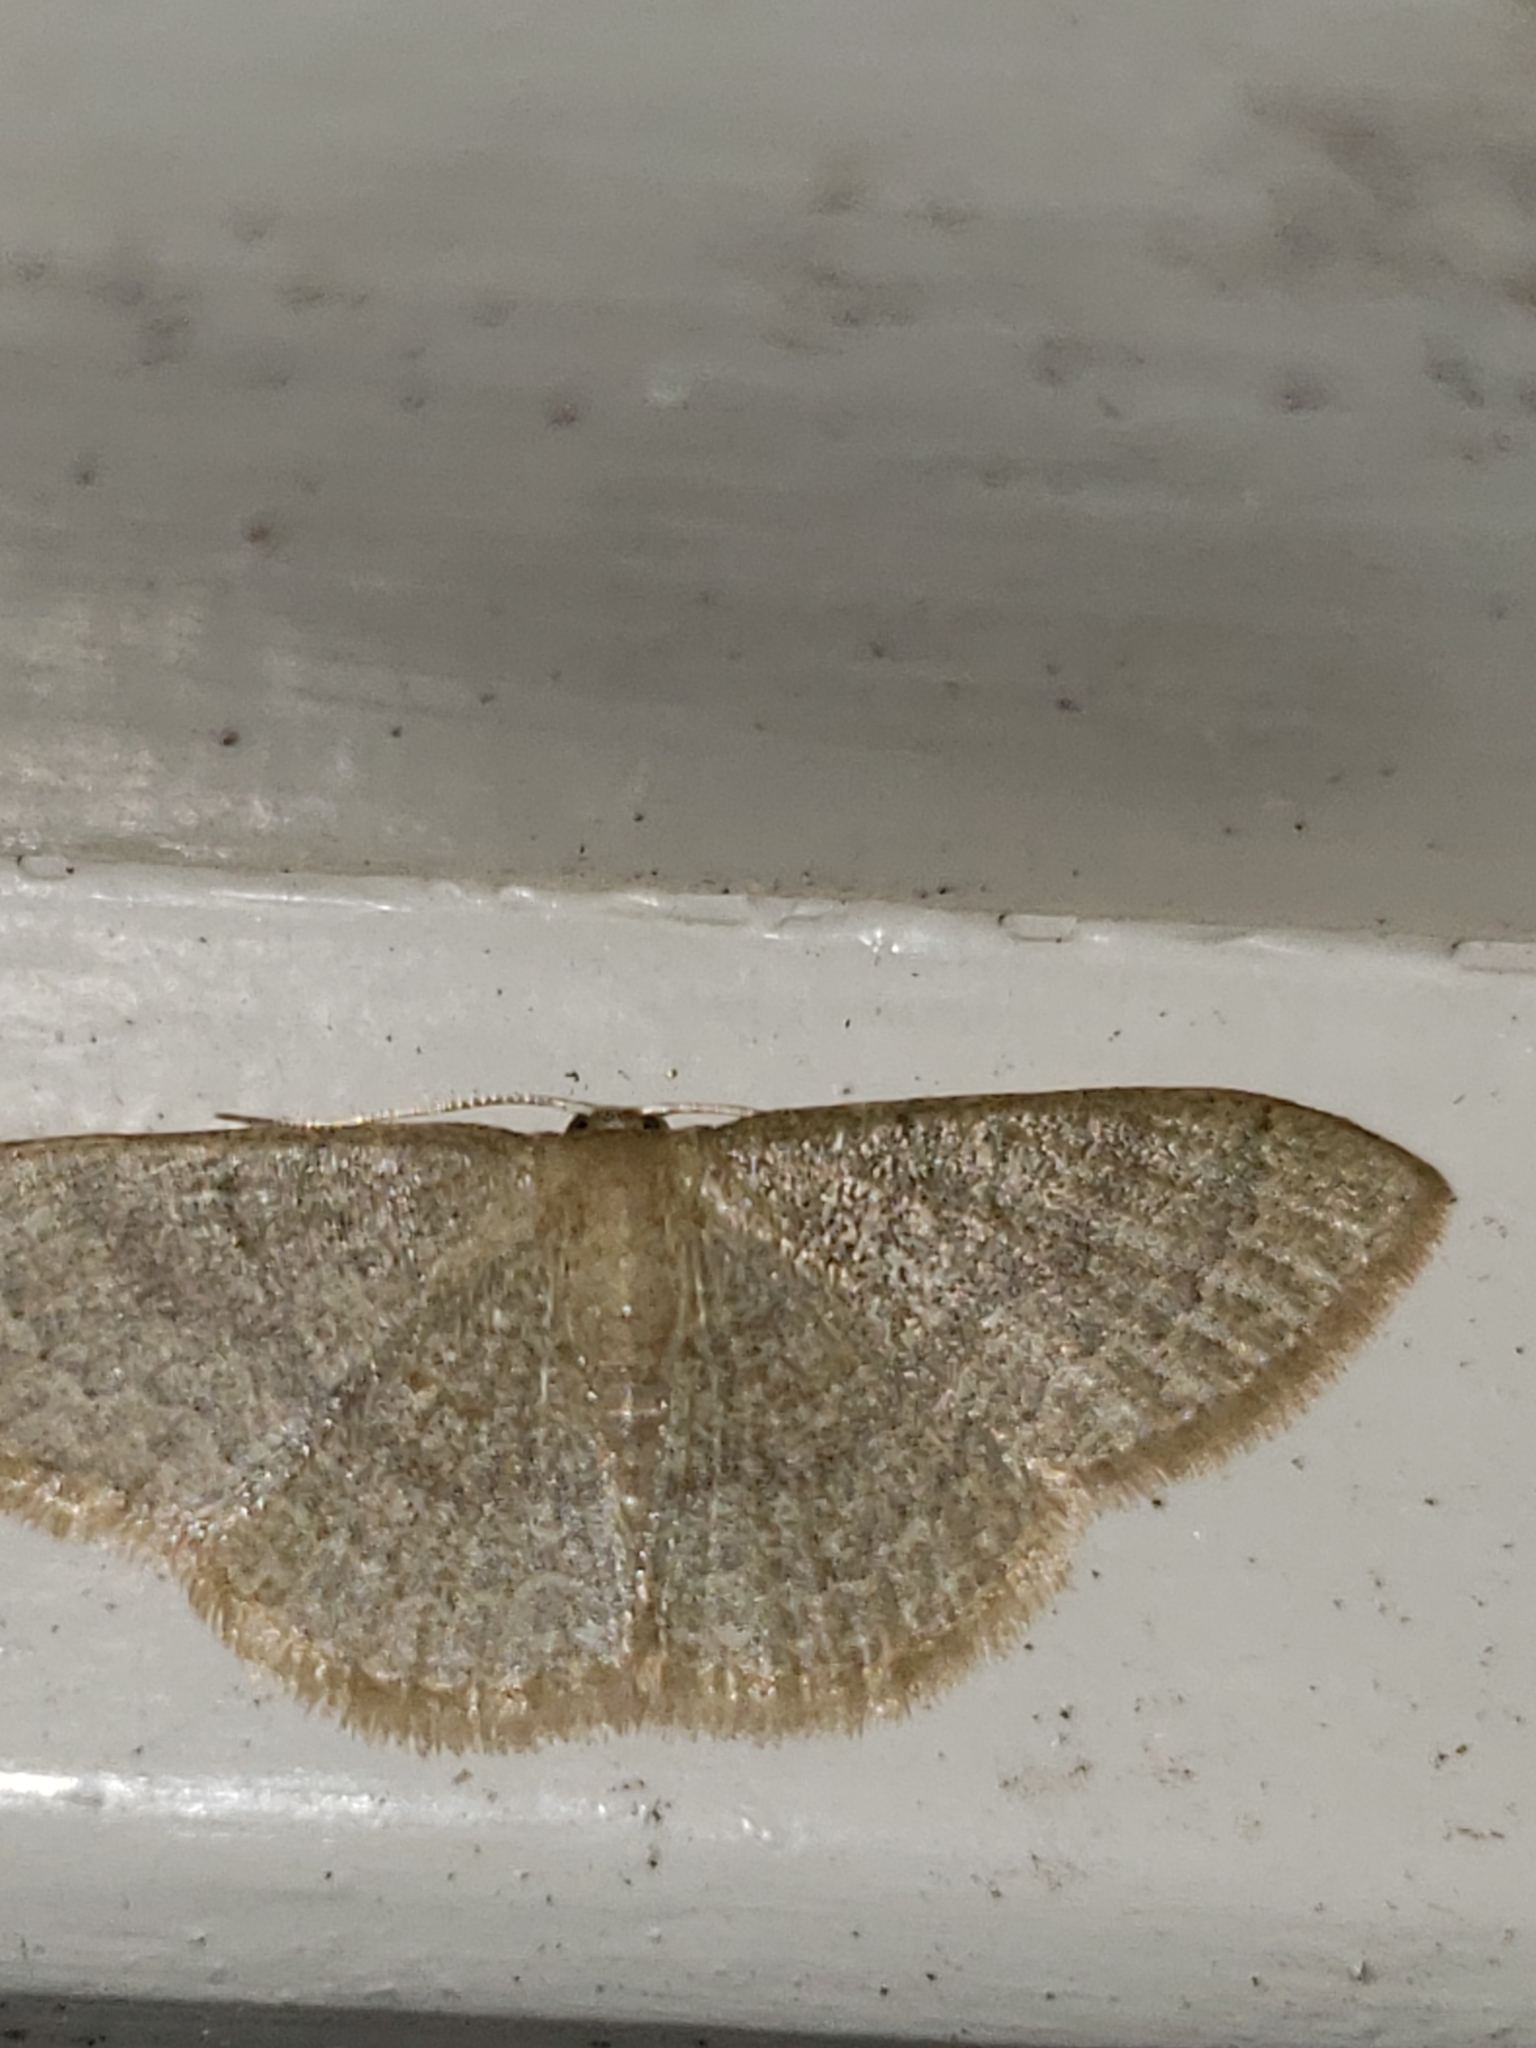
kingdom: Animalia
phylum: Arthropoda
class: Insecta
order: Lepidoptera
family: Geometridae
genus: Pleuroprucha
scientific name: Pleuroprucha insulsaria
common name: Common tan wave
